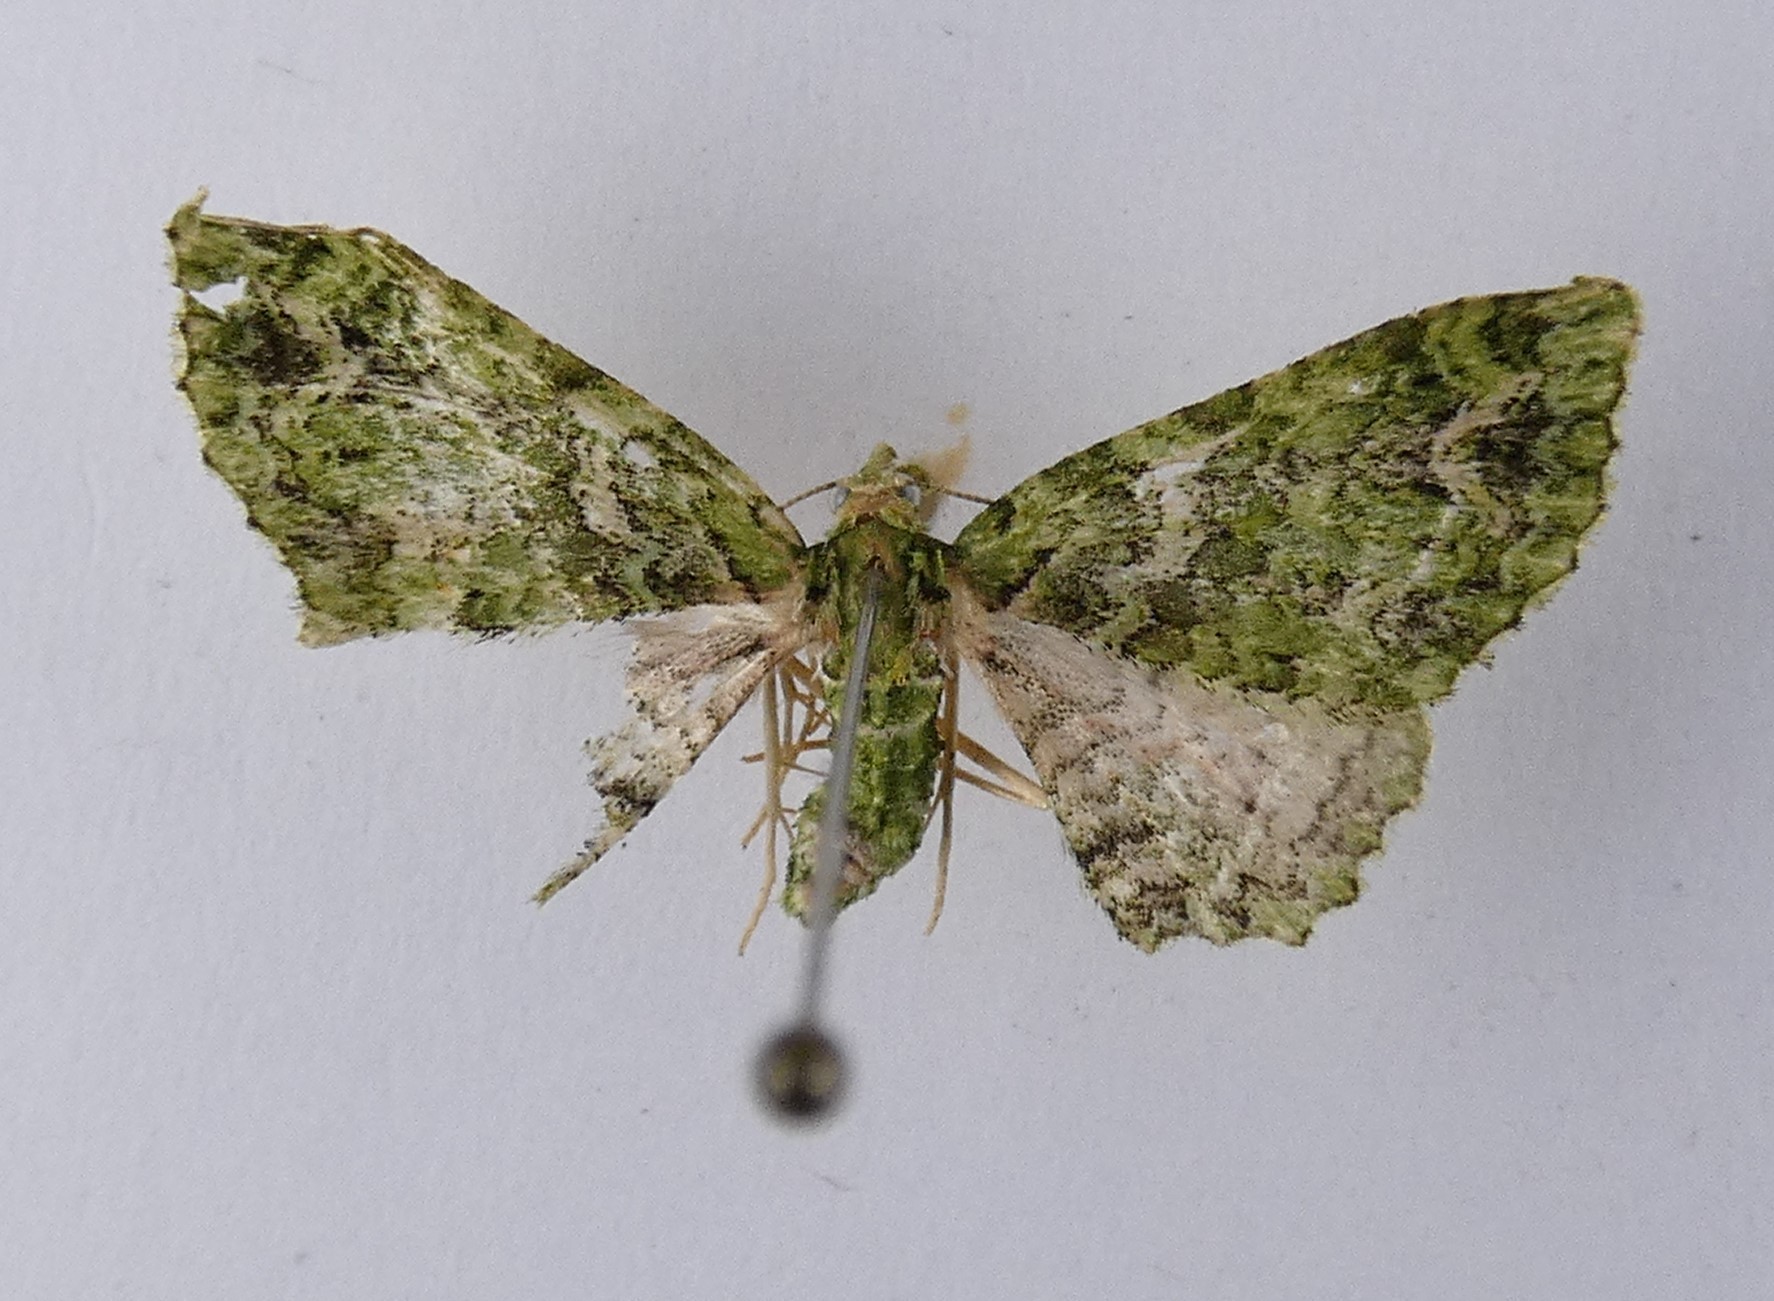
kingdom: Animalia
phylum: Arthropoda
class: Insecta
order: Lepidoptera
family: Geometridae
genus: Pasiphila
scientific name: Pasiphila muscosata
